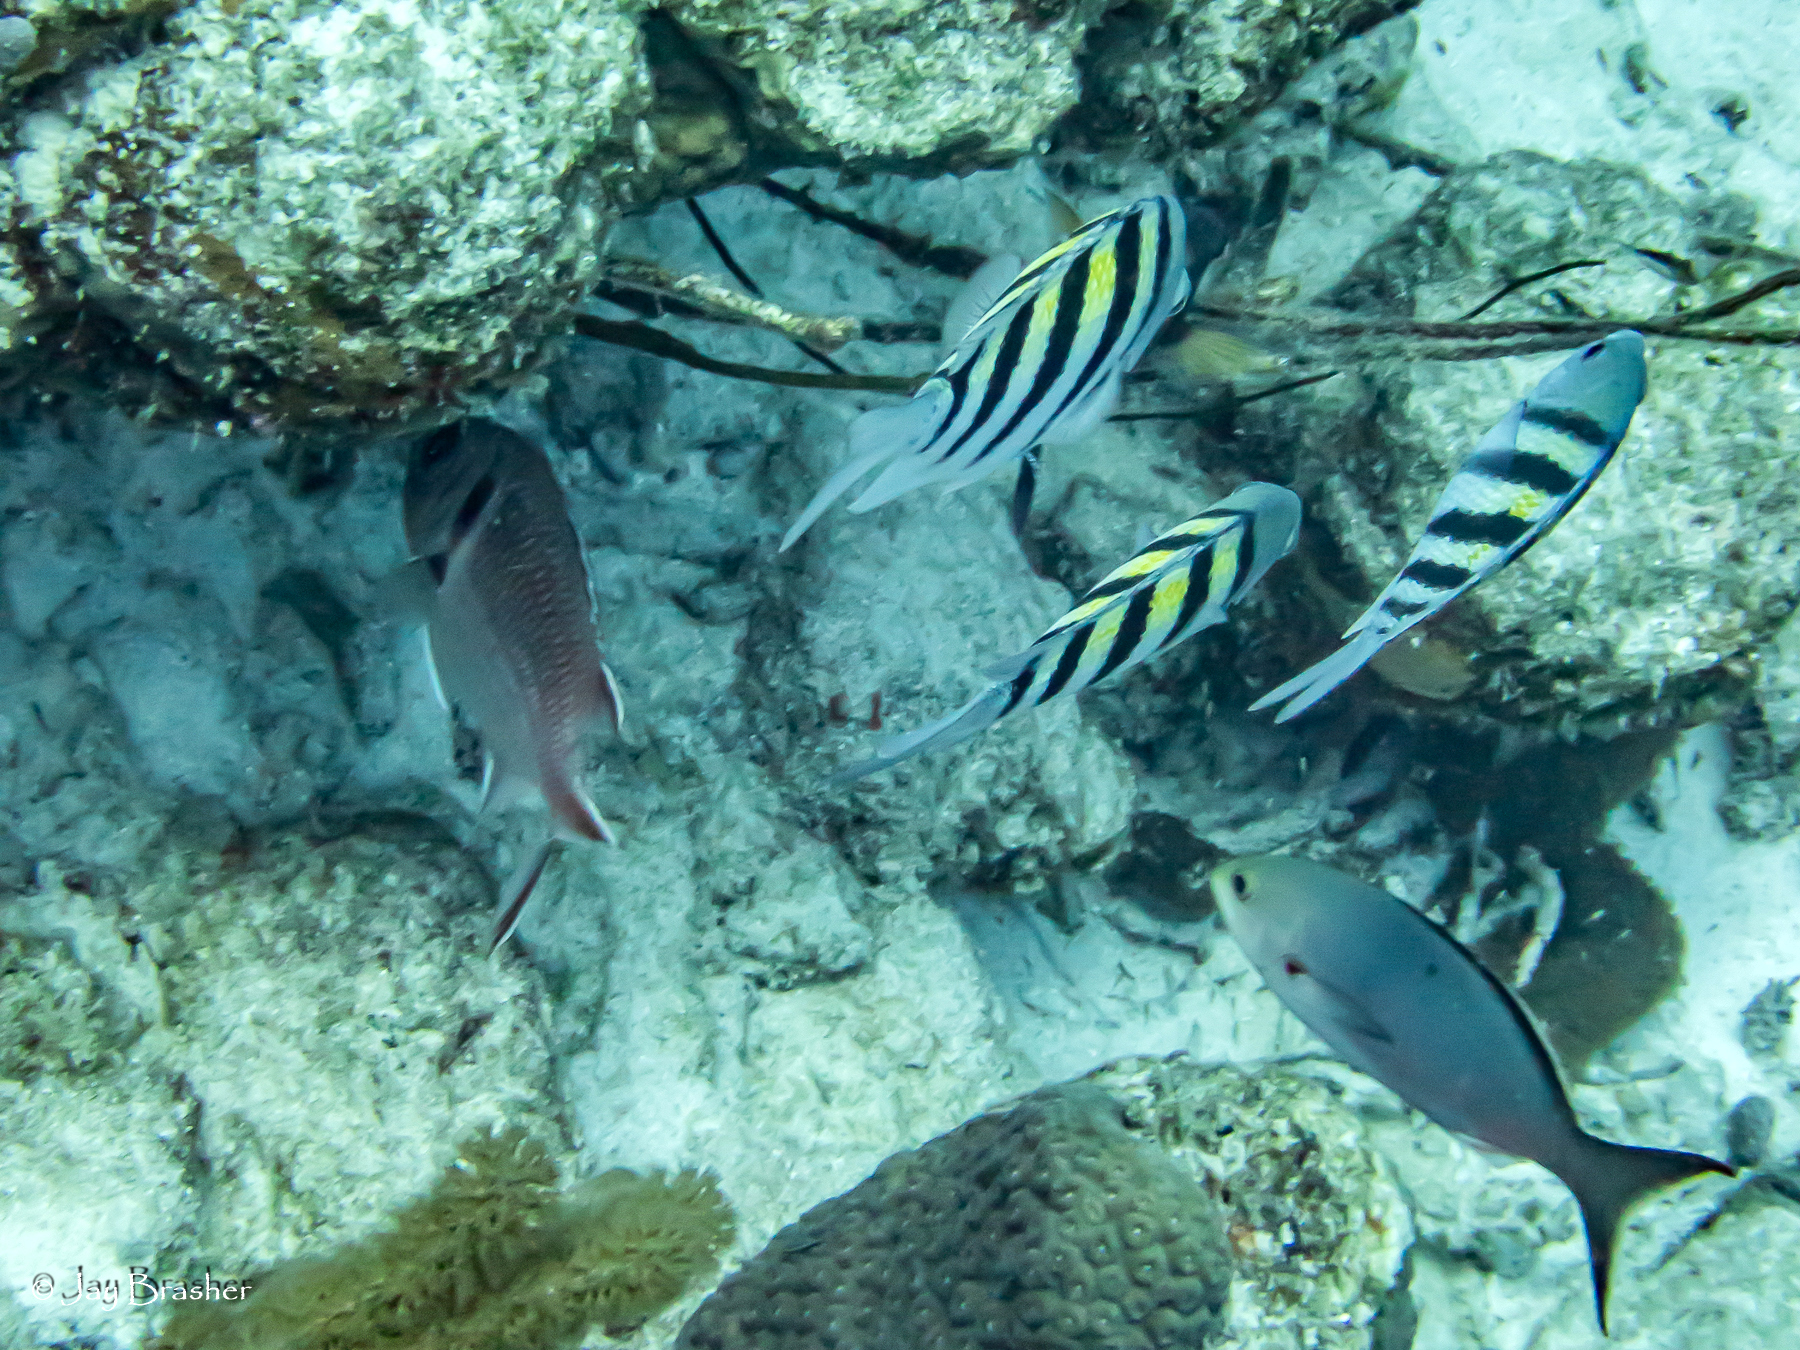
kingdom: Animalia
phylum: Chordata
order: Perciformes
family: Pomacentridae
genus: Abudefduf
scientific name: Abudefduf saxatilis
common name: Sergeant major
